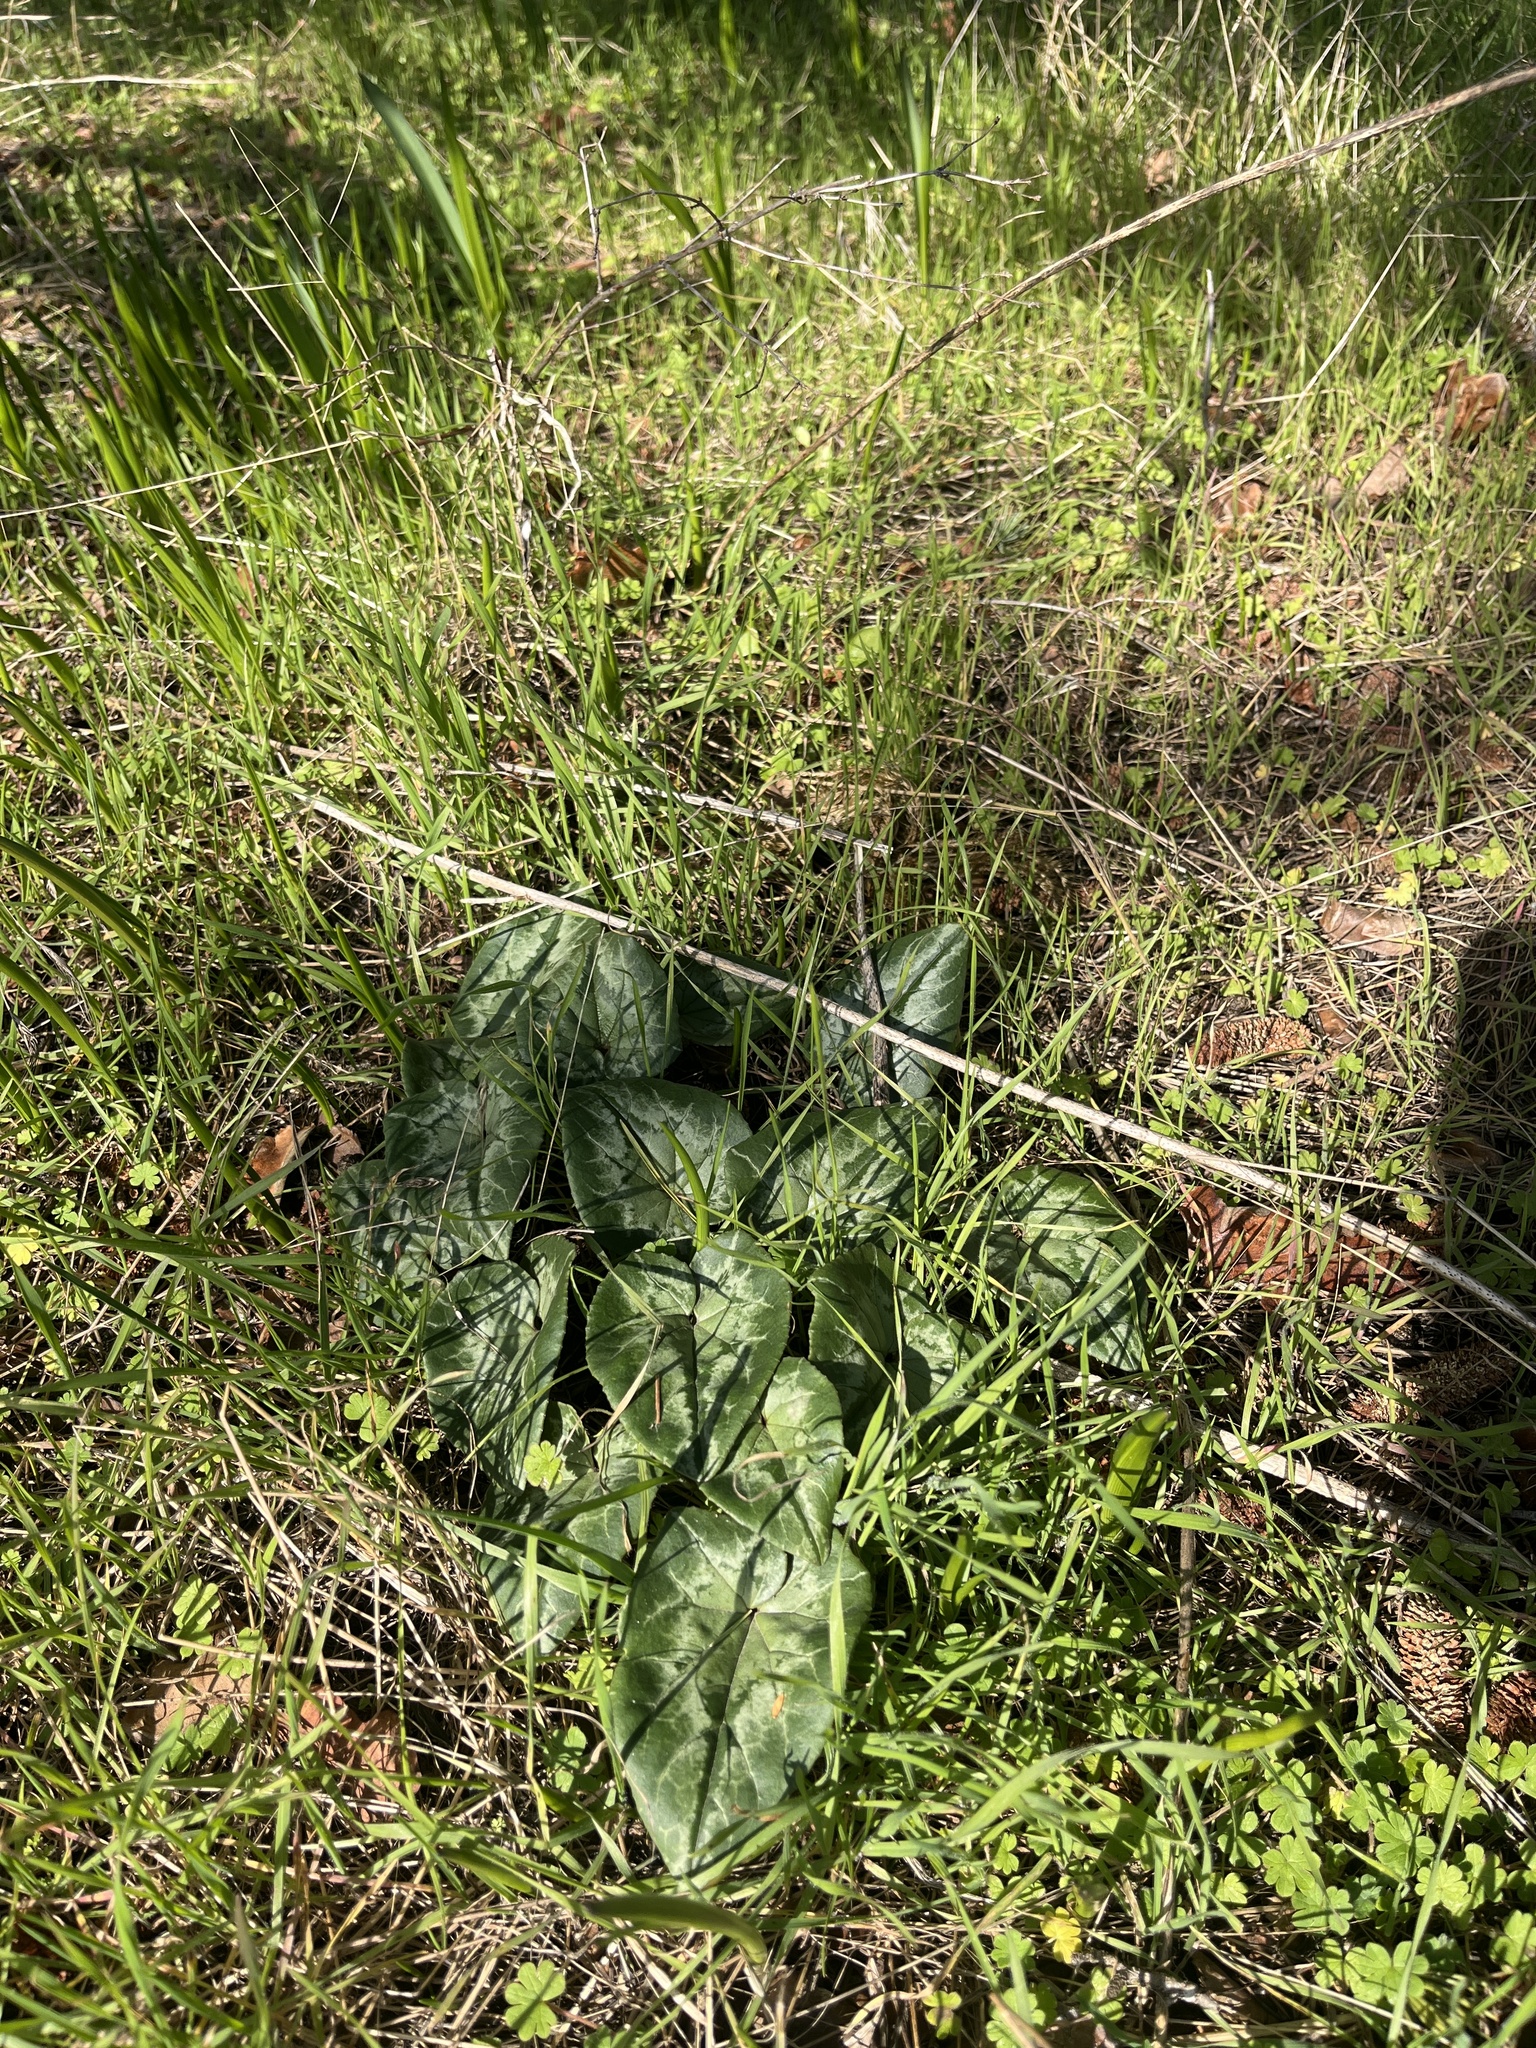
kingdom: Plantae
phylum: Tracheophyta
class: Magnoliopsida
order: Ericales
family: Primulaceae
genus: Cyclamen
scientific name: Cyclamen hederifolium
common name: Sowbread
